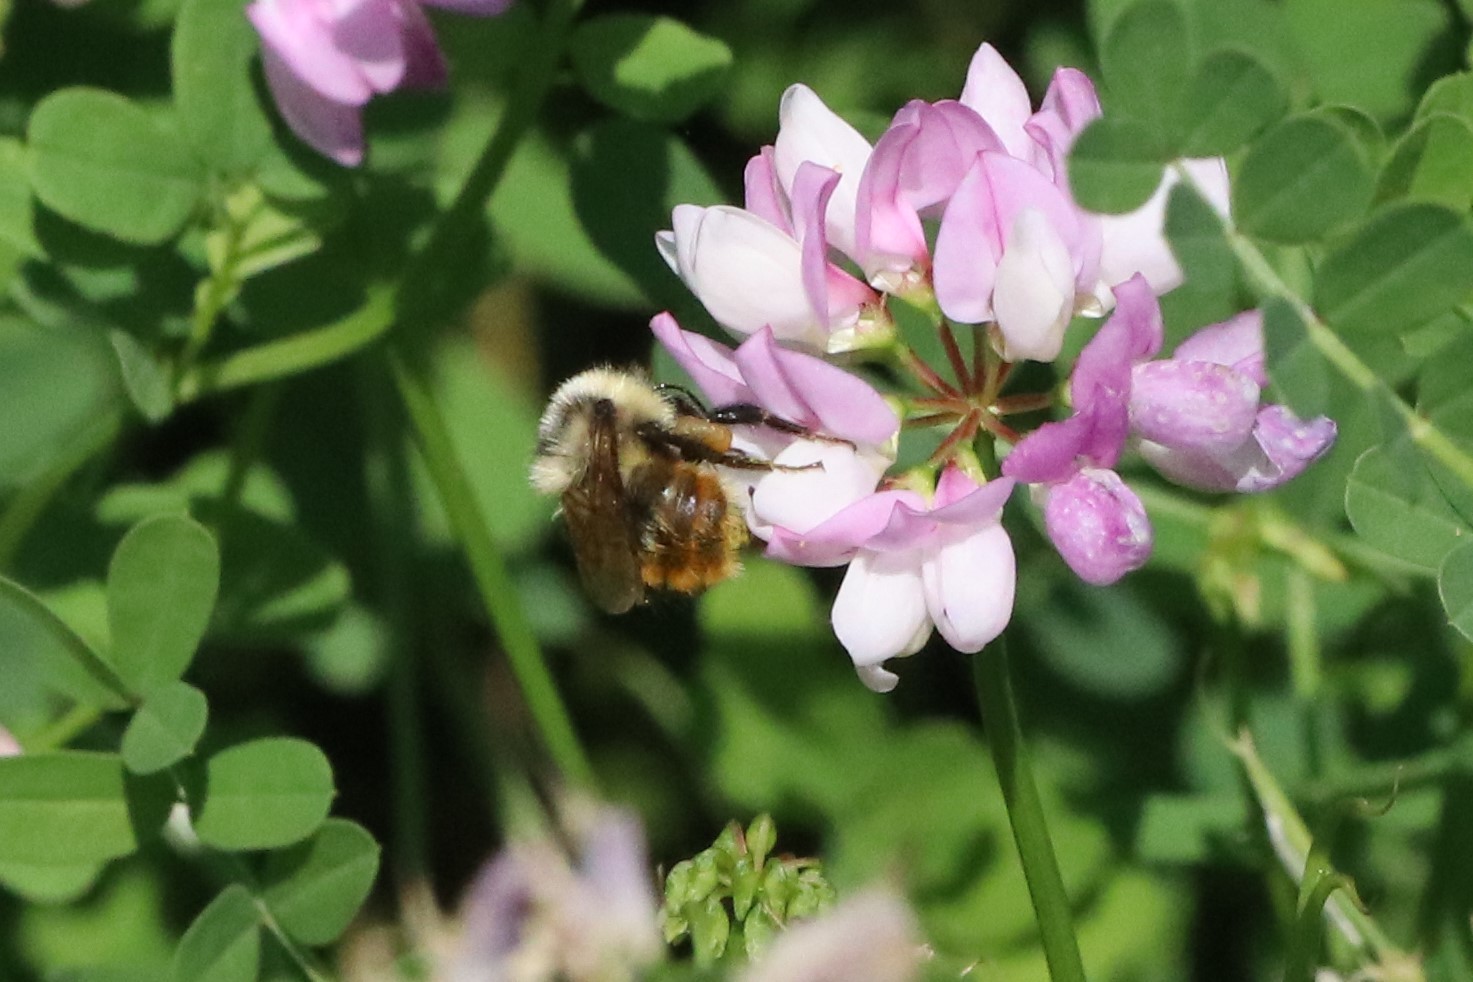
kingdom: Animalia
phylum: Arthropoda
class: Insecta
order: Hymenoptera
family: Apidae
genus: Bombus
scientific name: Bombus rufocinctus
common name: Red-belted bumble bee
